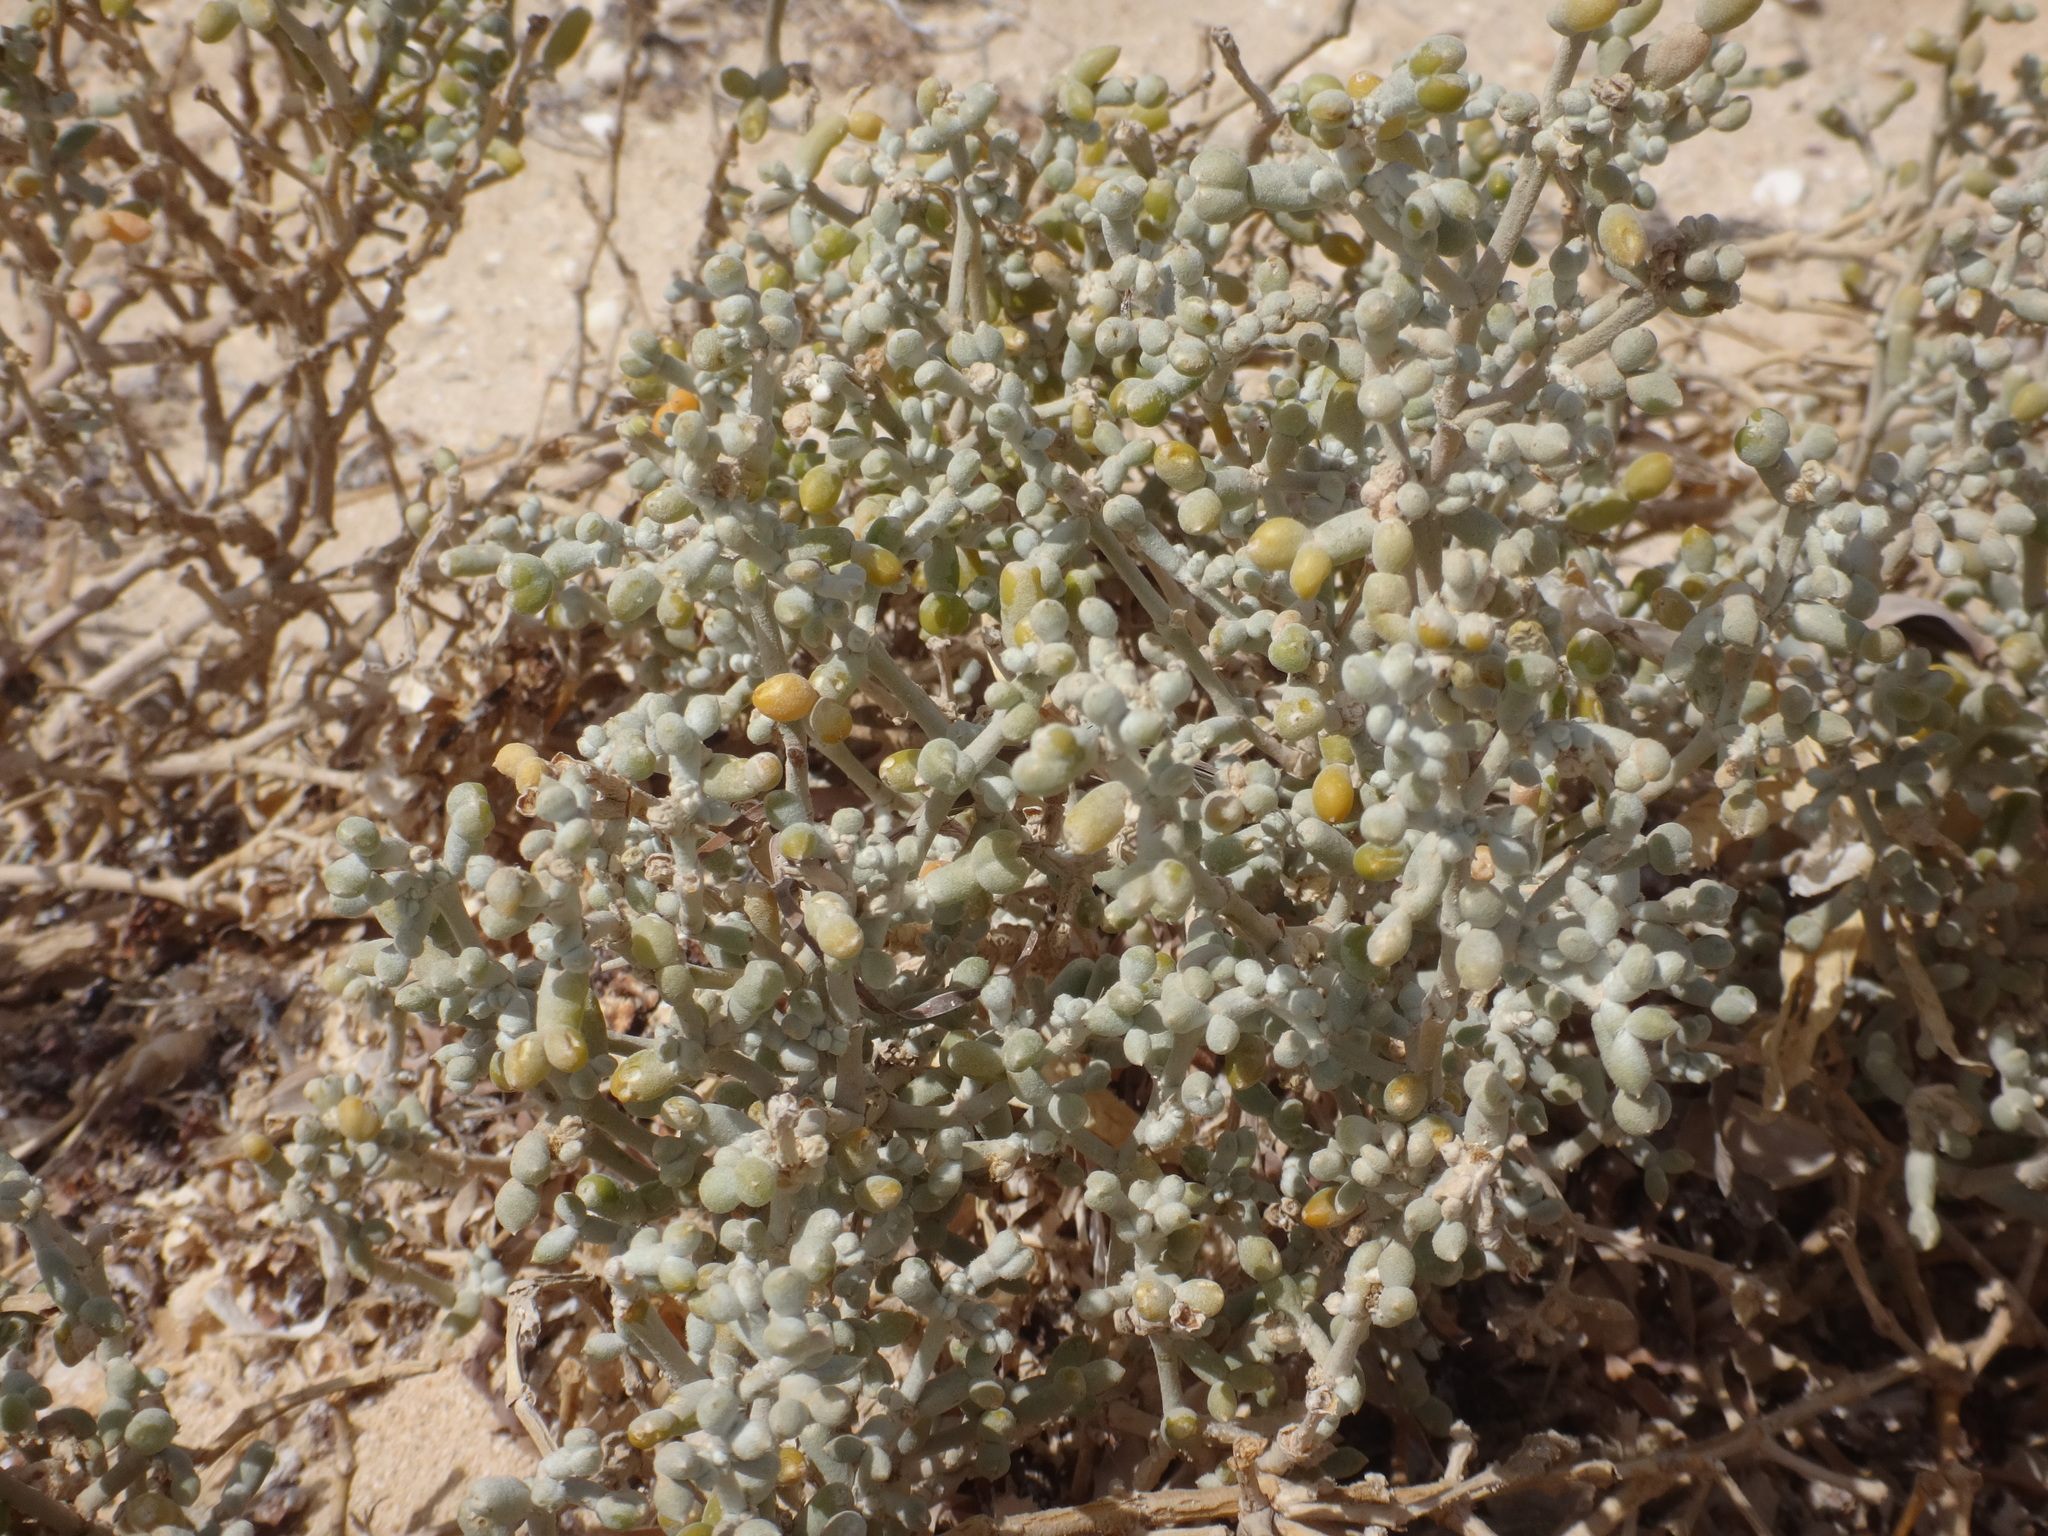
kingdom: Plantae
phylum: Tracheophyta
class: Magnoliopsida
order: Zygophyllales
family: Zygophyllaceae
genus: Tetraena
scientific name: Tetraena alba
